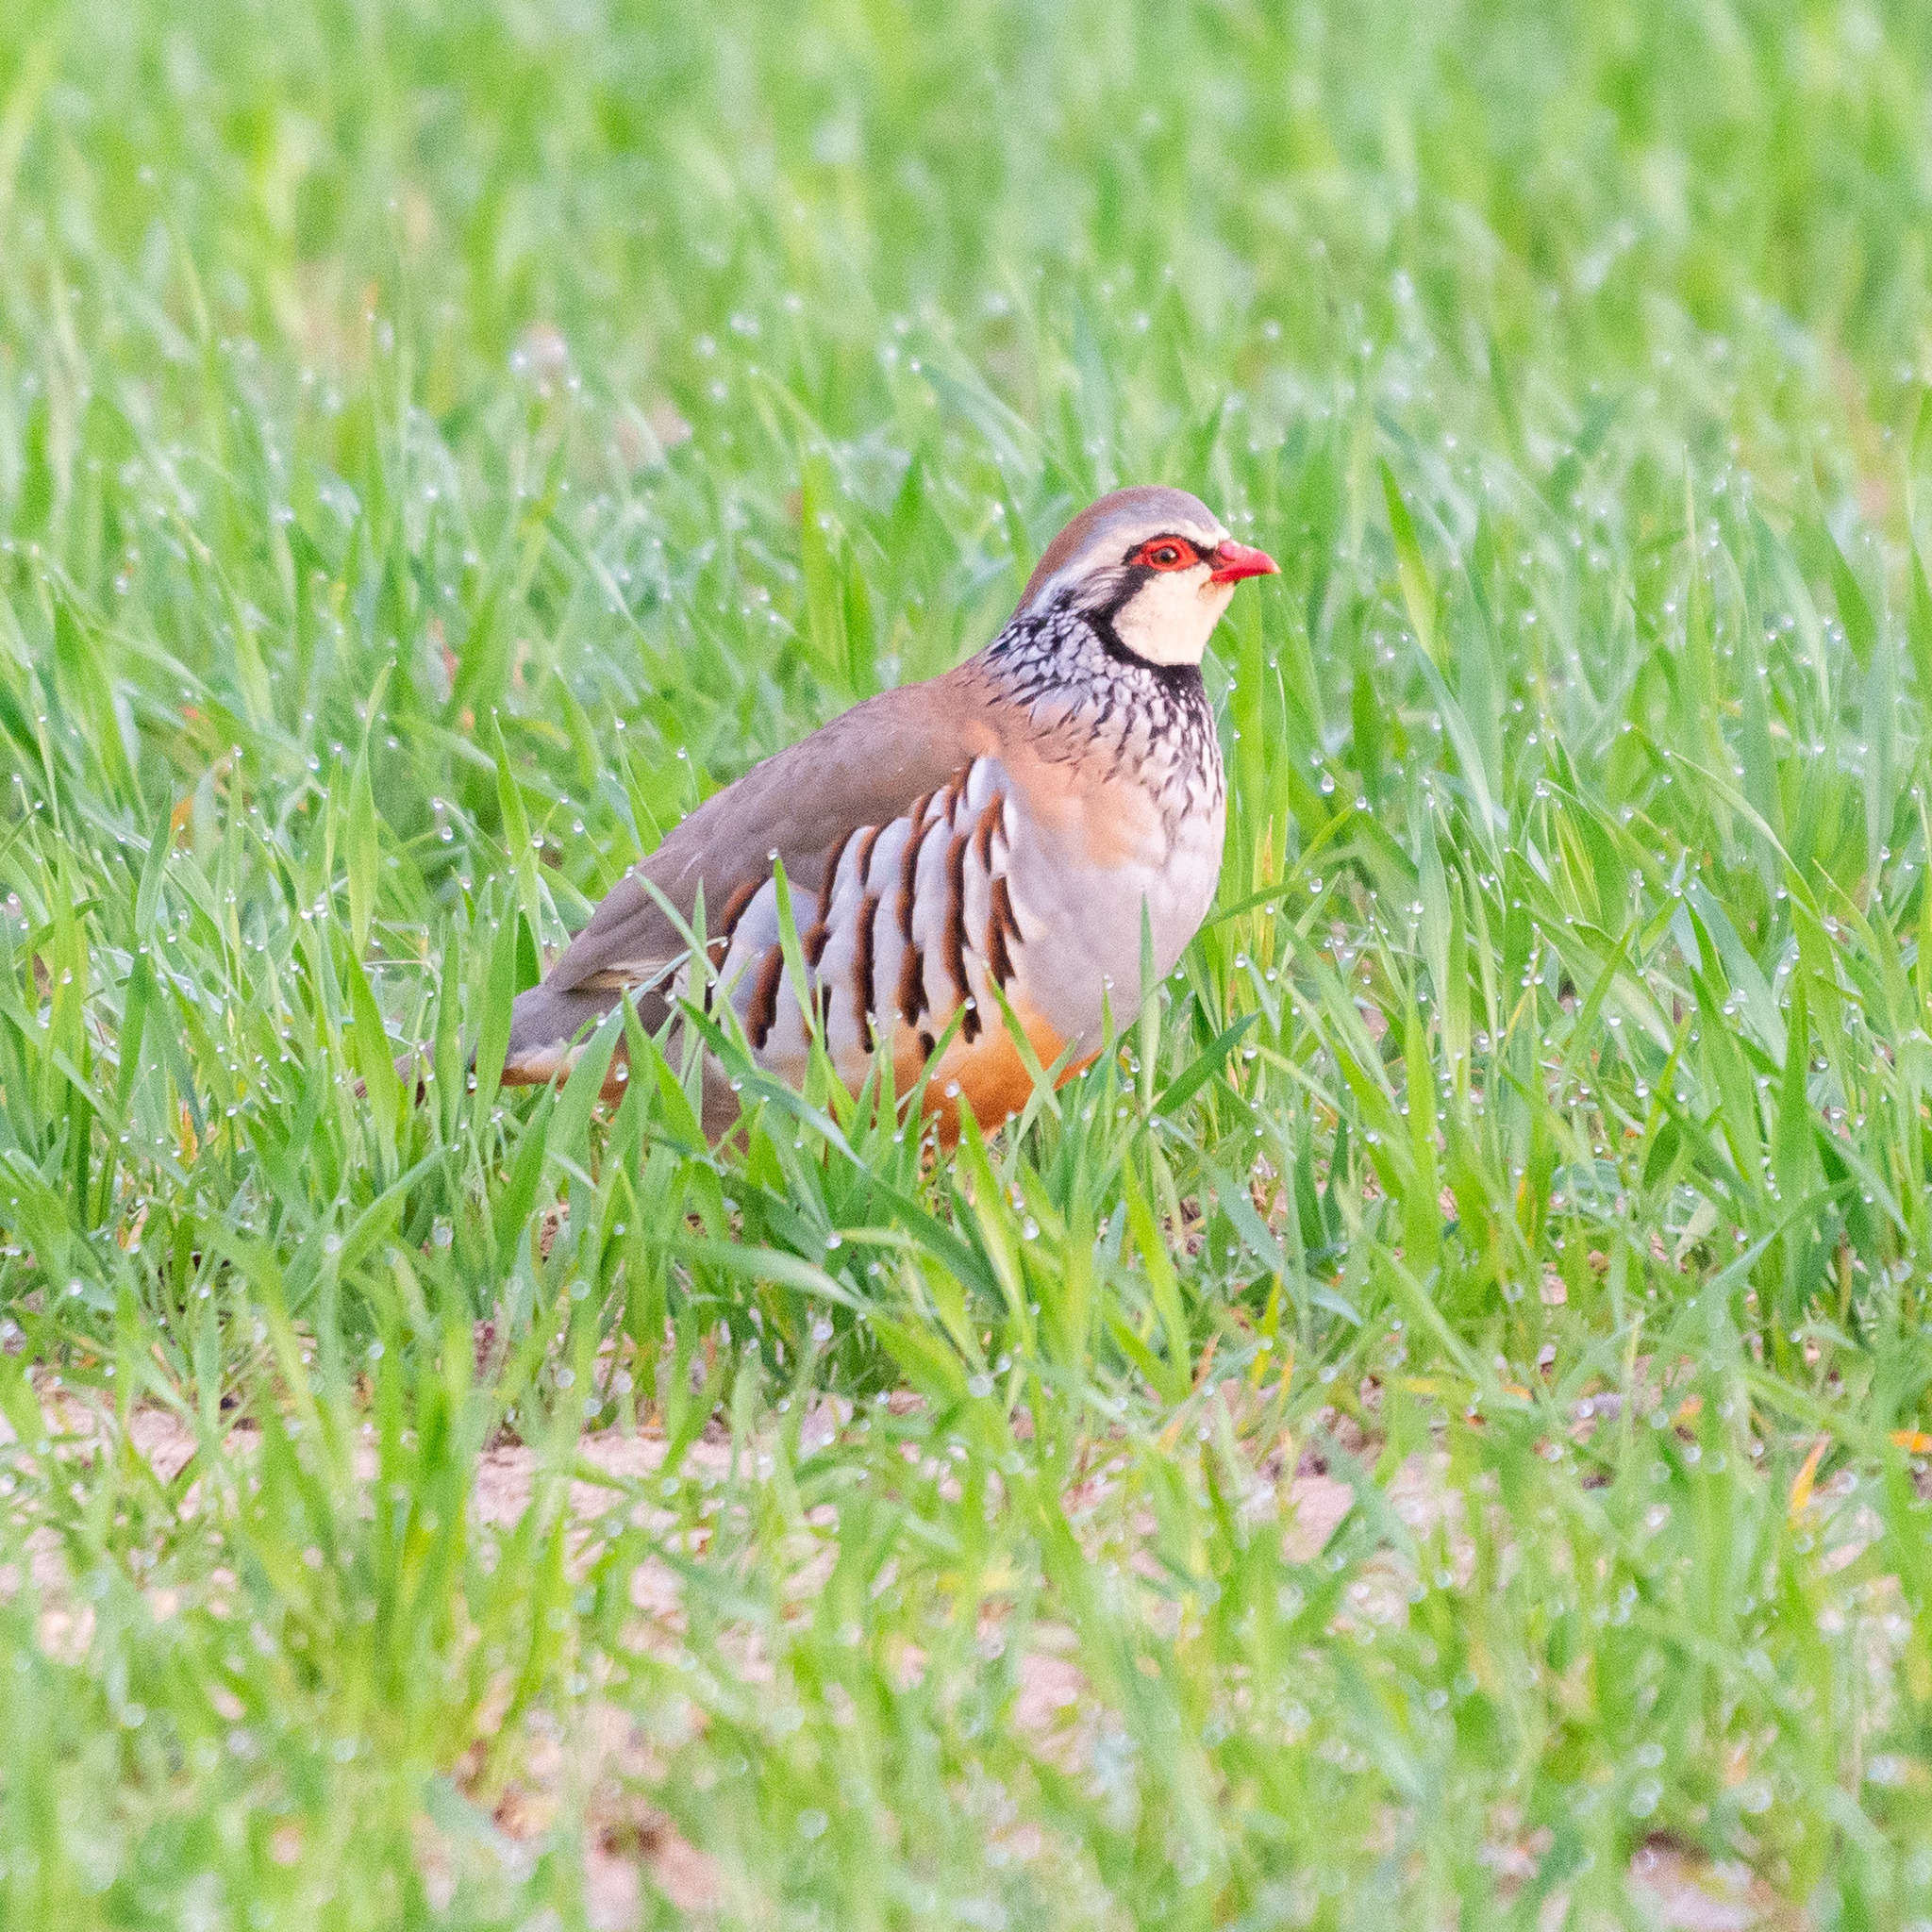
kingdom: Animalia
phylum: Chordata
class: Aves
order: Galliformes
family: Phasianidae
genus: Alectoris
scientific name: Alectoris rufa
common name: Red-legged partridge
